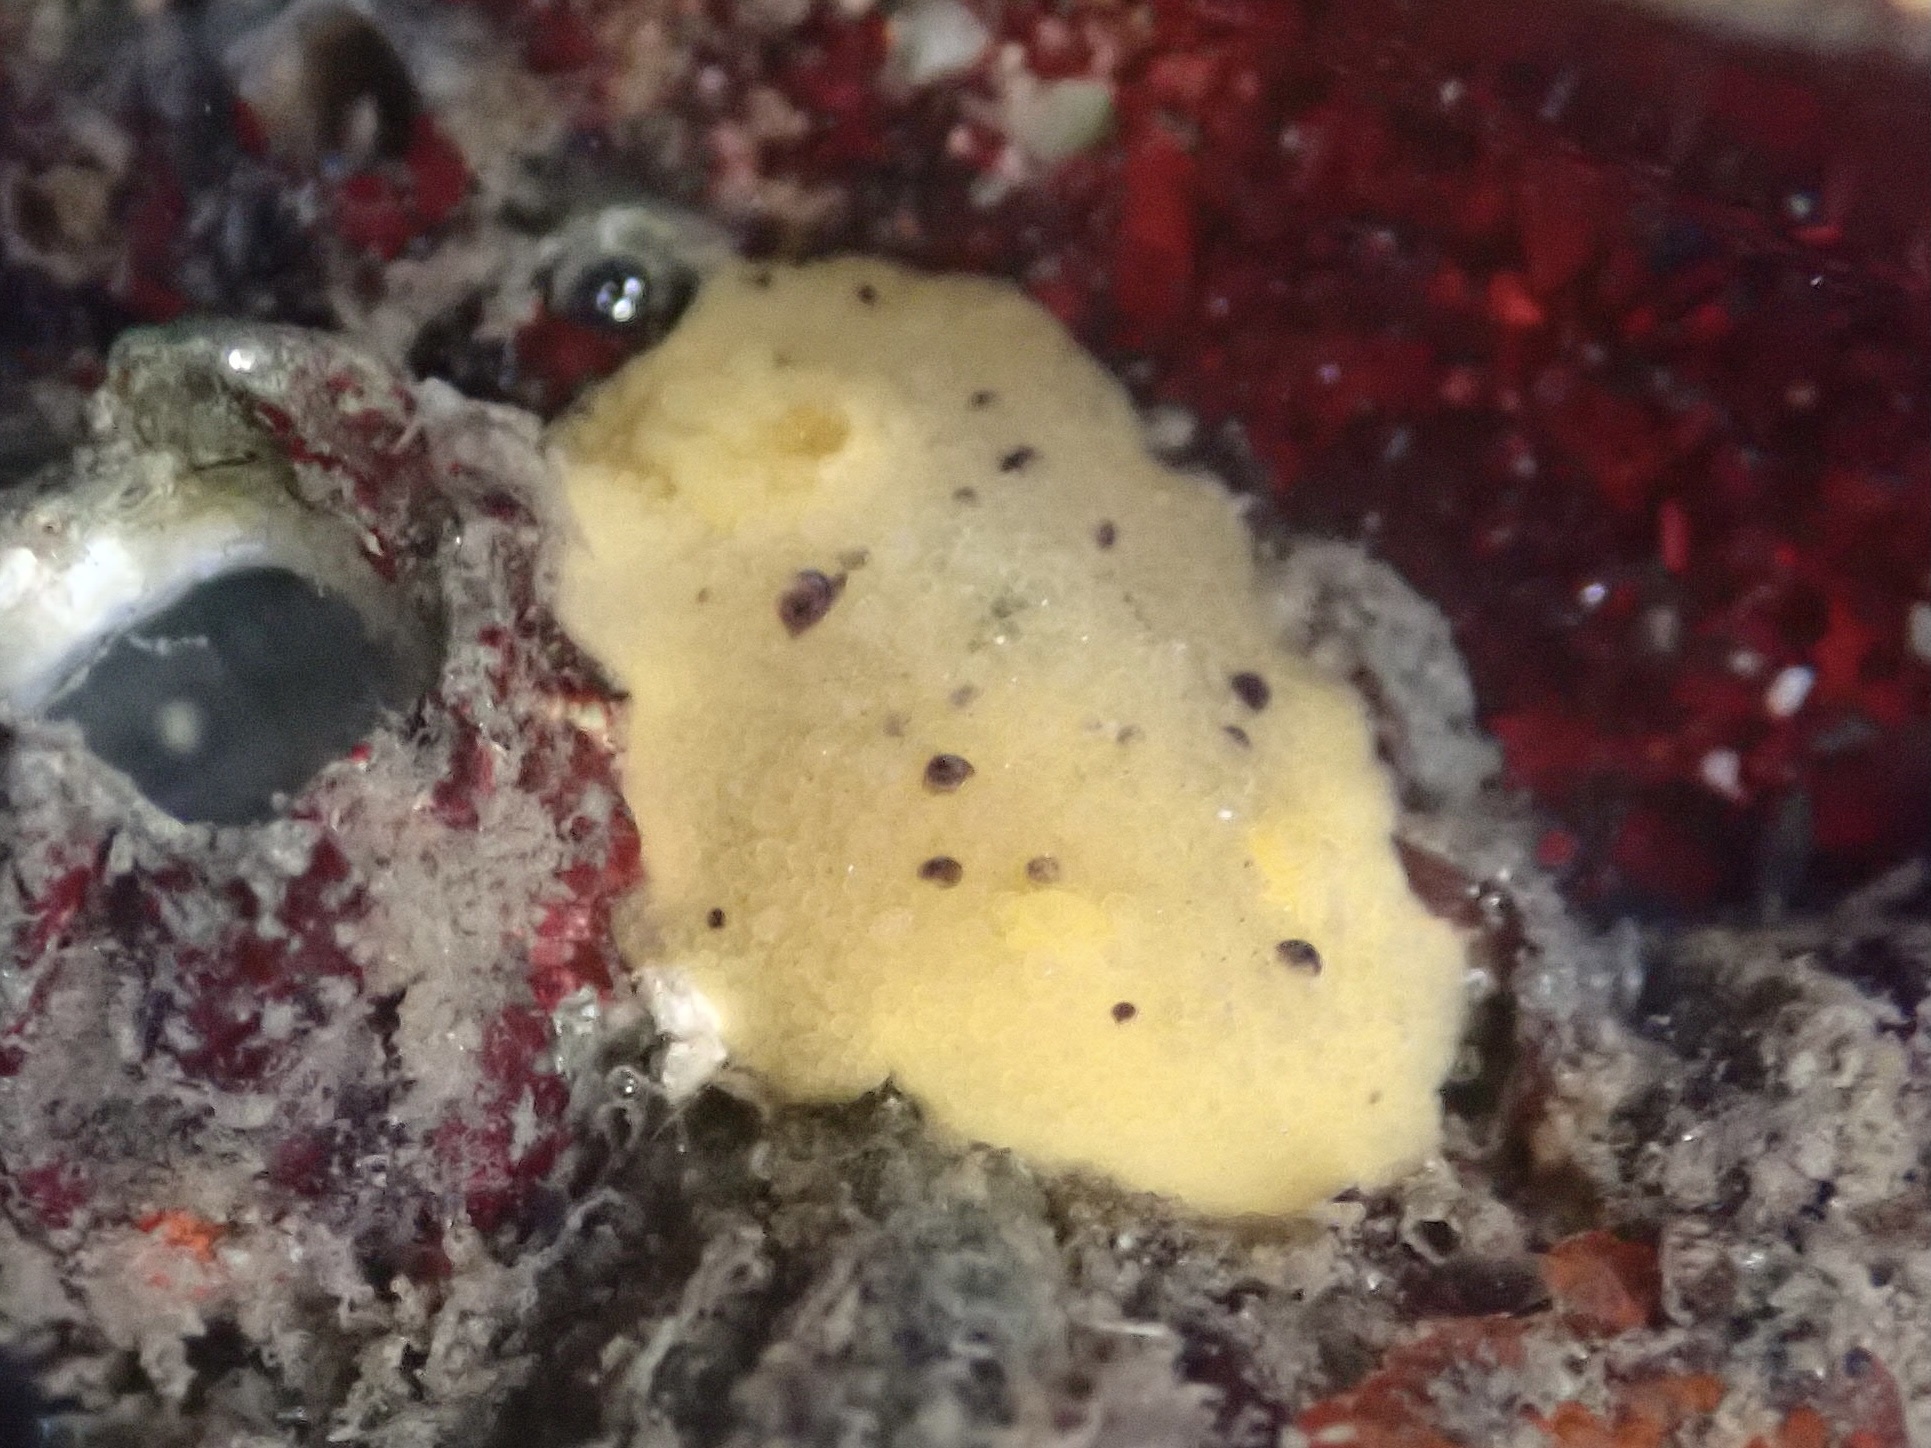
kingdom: Animalia
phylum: Mollusca
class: Gastropoda
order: Nudibranchia
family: Dorididae
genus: Doris
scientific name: Doris montereyensis
